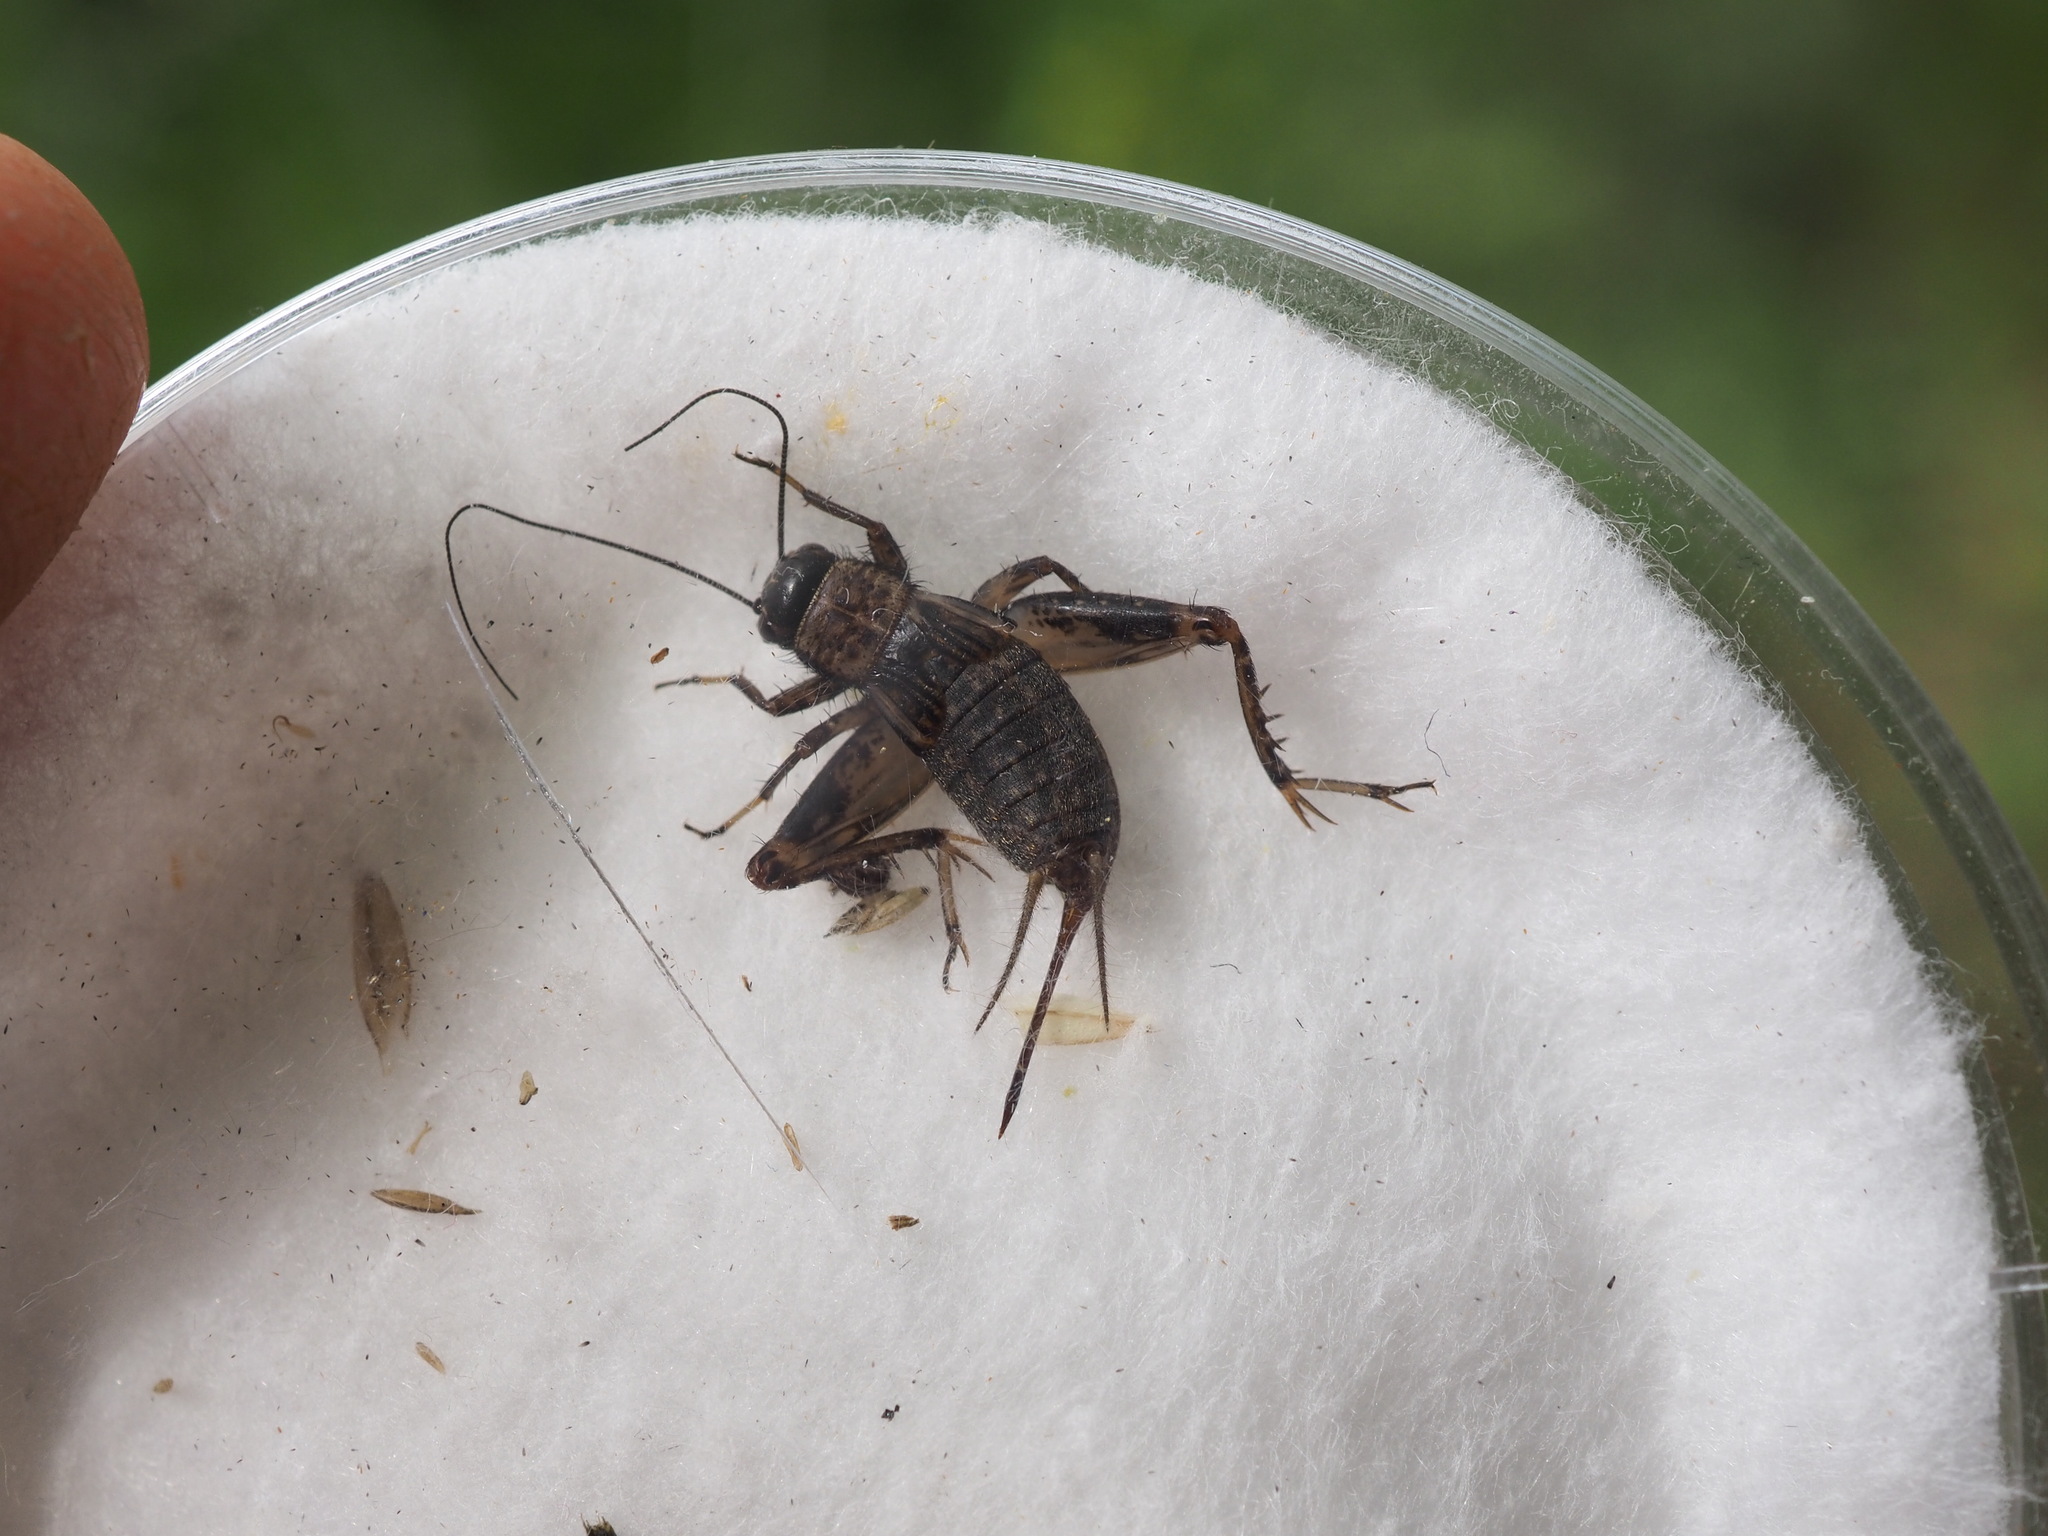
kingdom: Animalia
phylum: Arthropoda
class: Insecta
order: Orthoptera
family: Trigonidiidae
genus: Nemobius
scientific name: Nemobius sylvestris
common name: Wood-cricket
